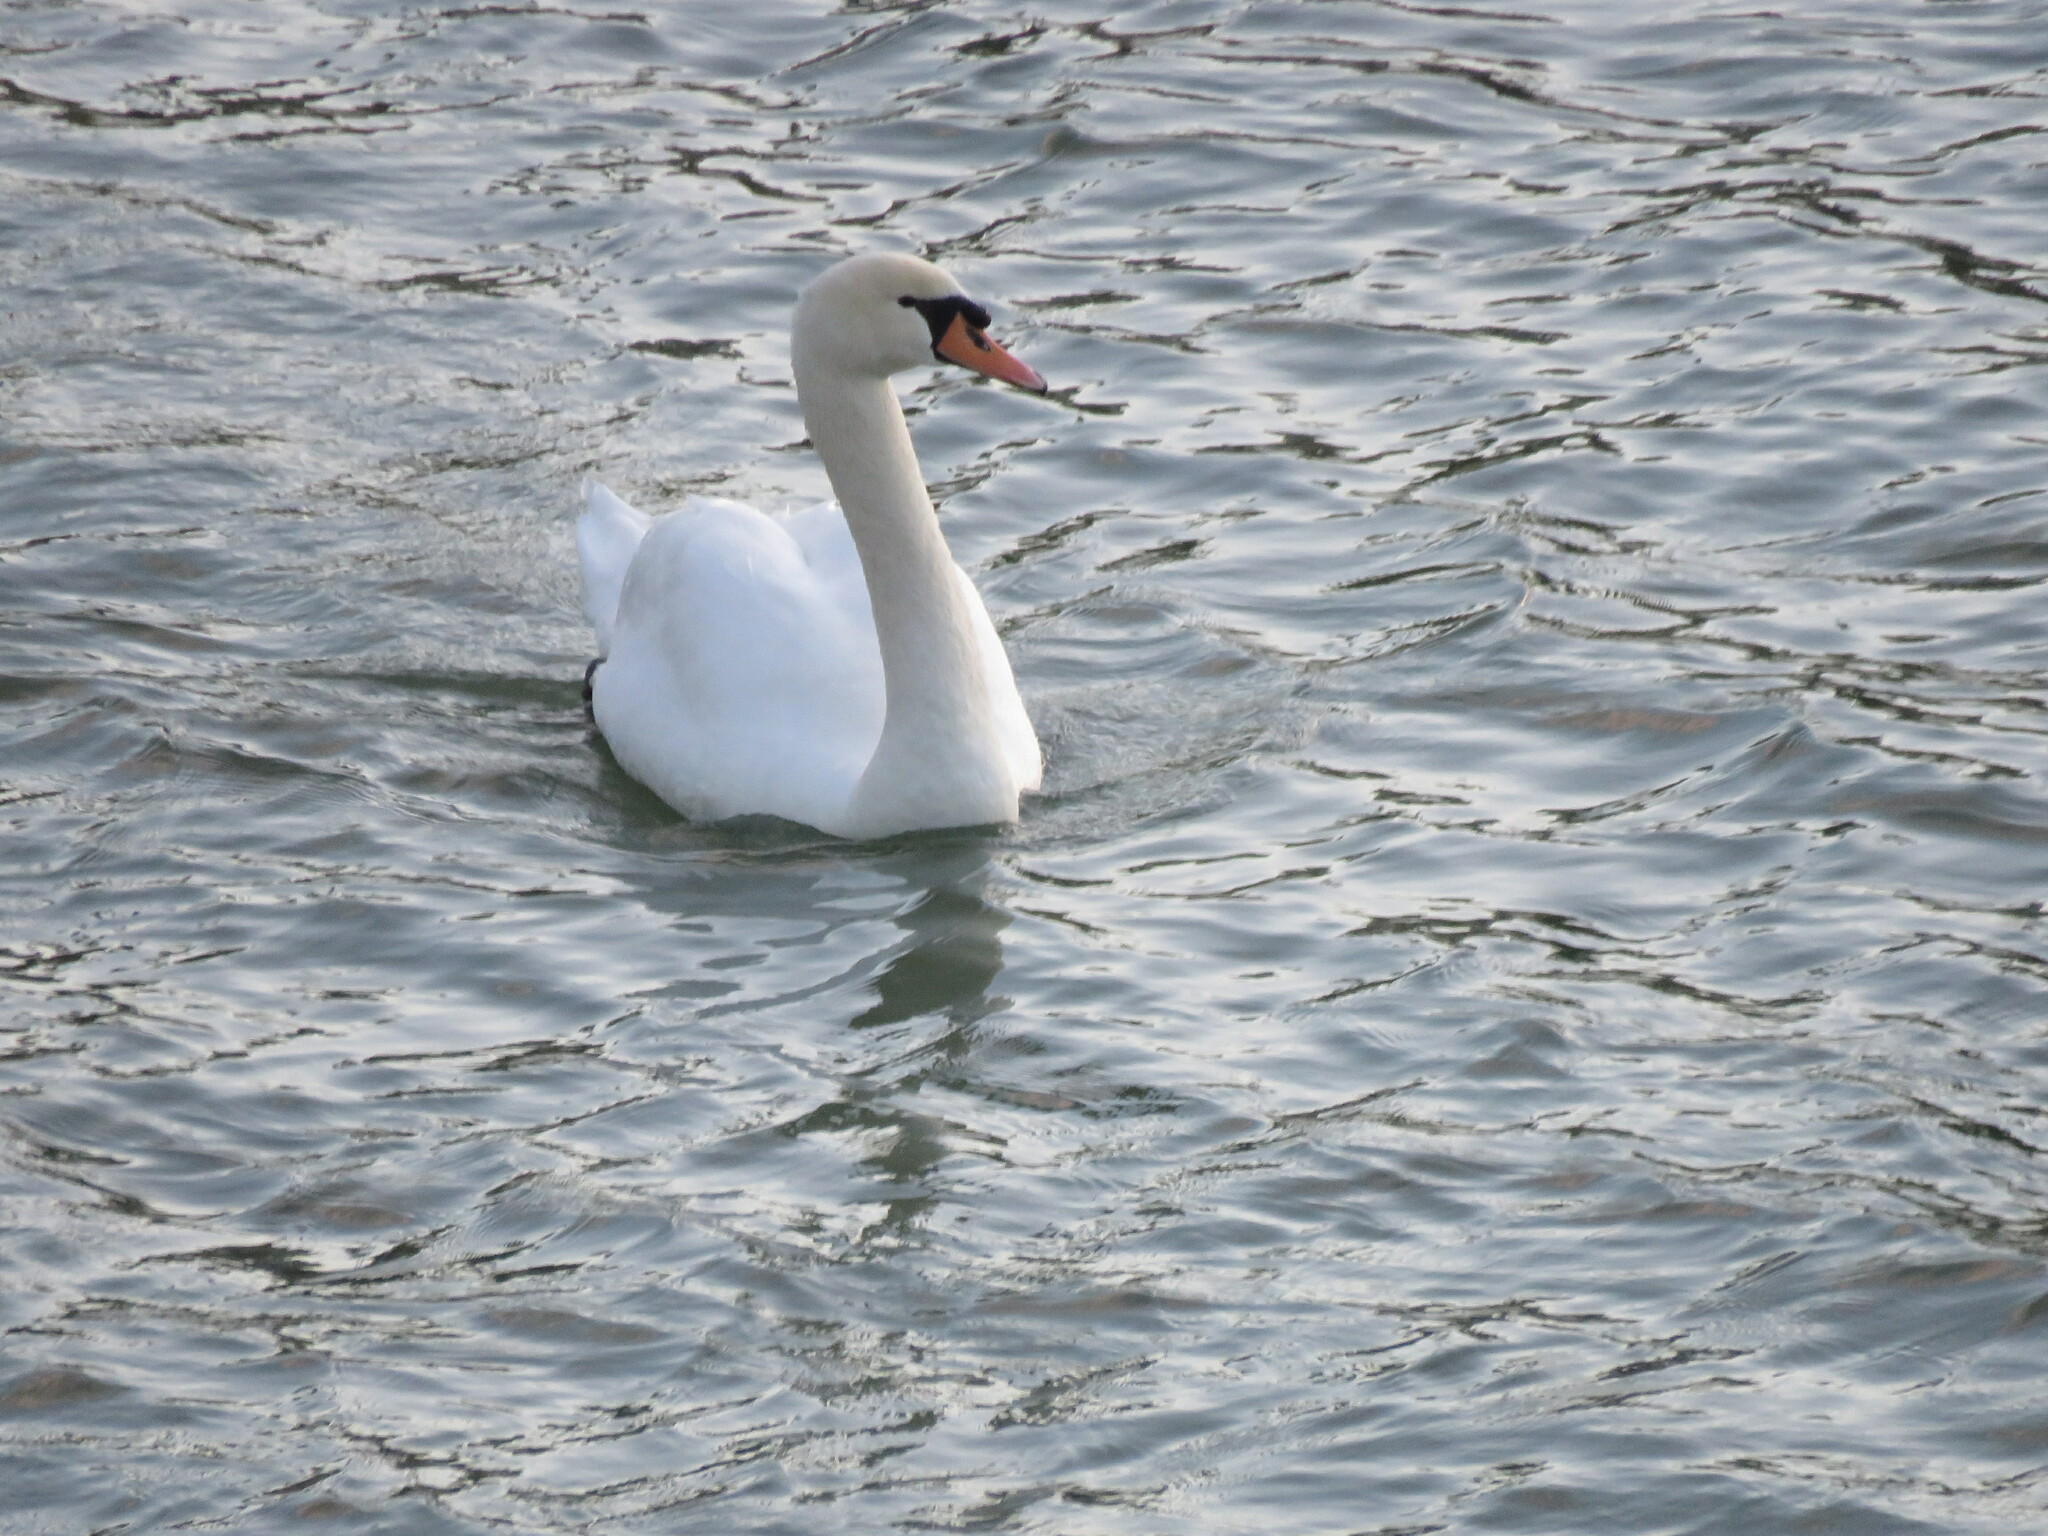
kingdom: Animalia
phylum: Chordata
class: Aves
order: Anseriformes
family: Anatidae
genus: Cygnus
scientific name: Cygnus olor
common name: Mute swan
